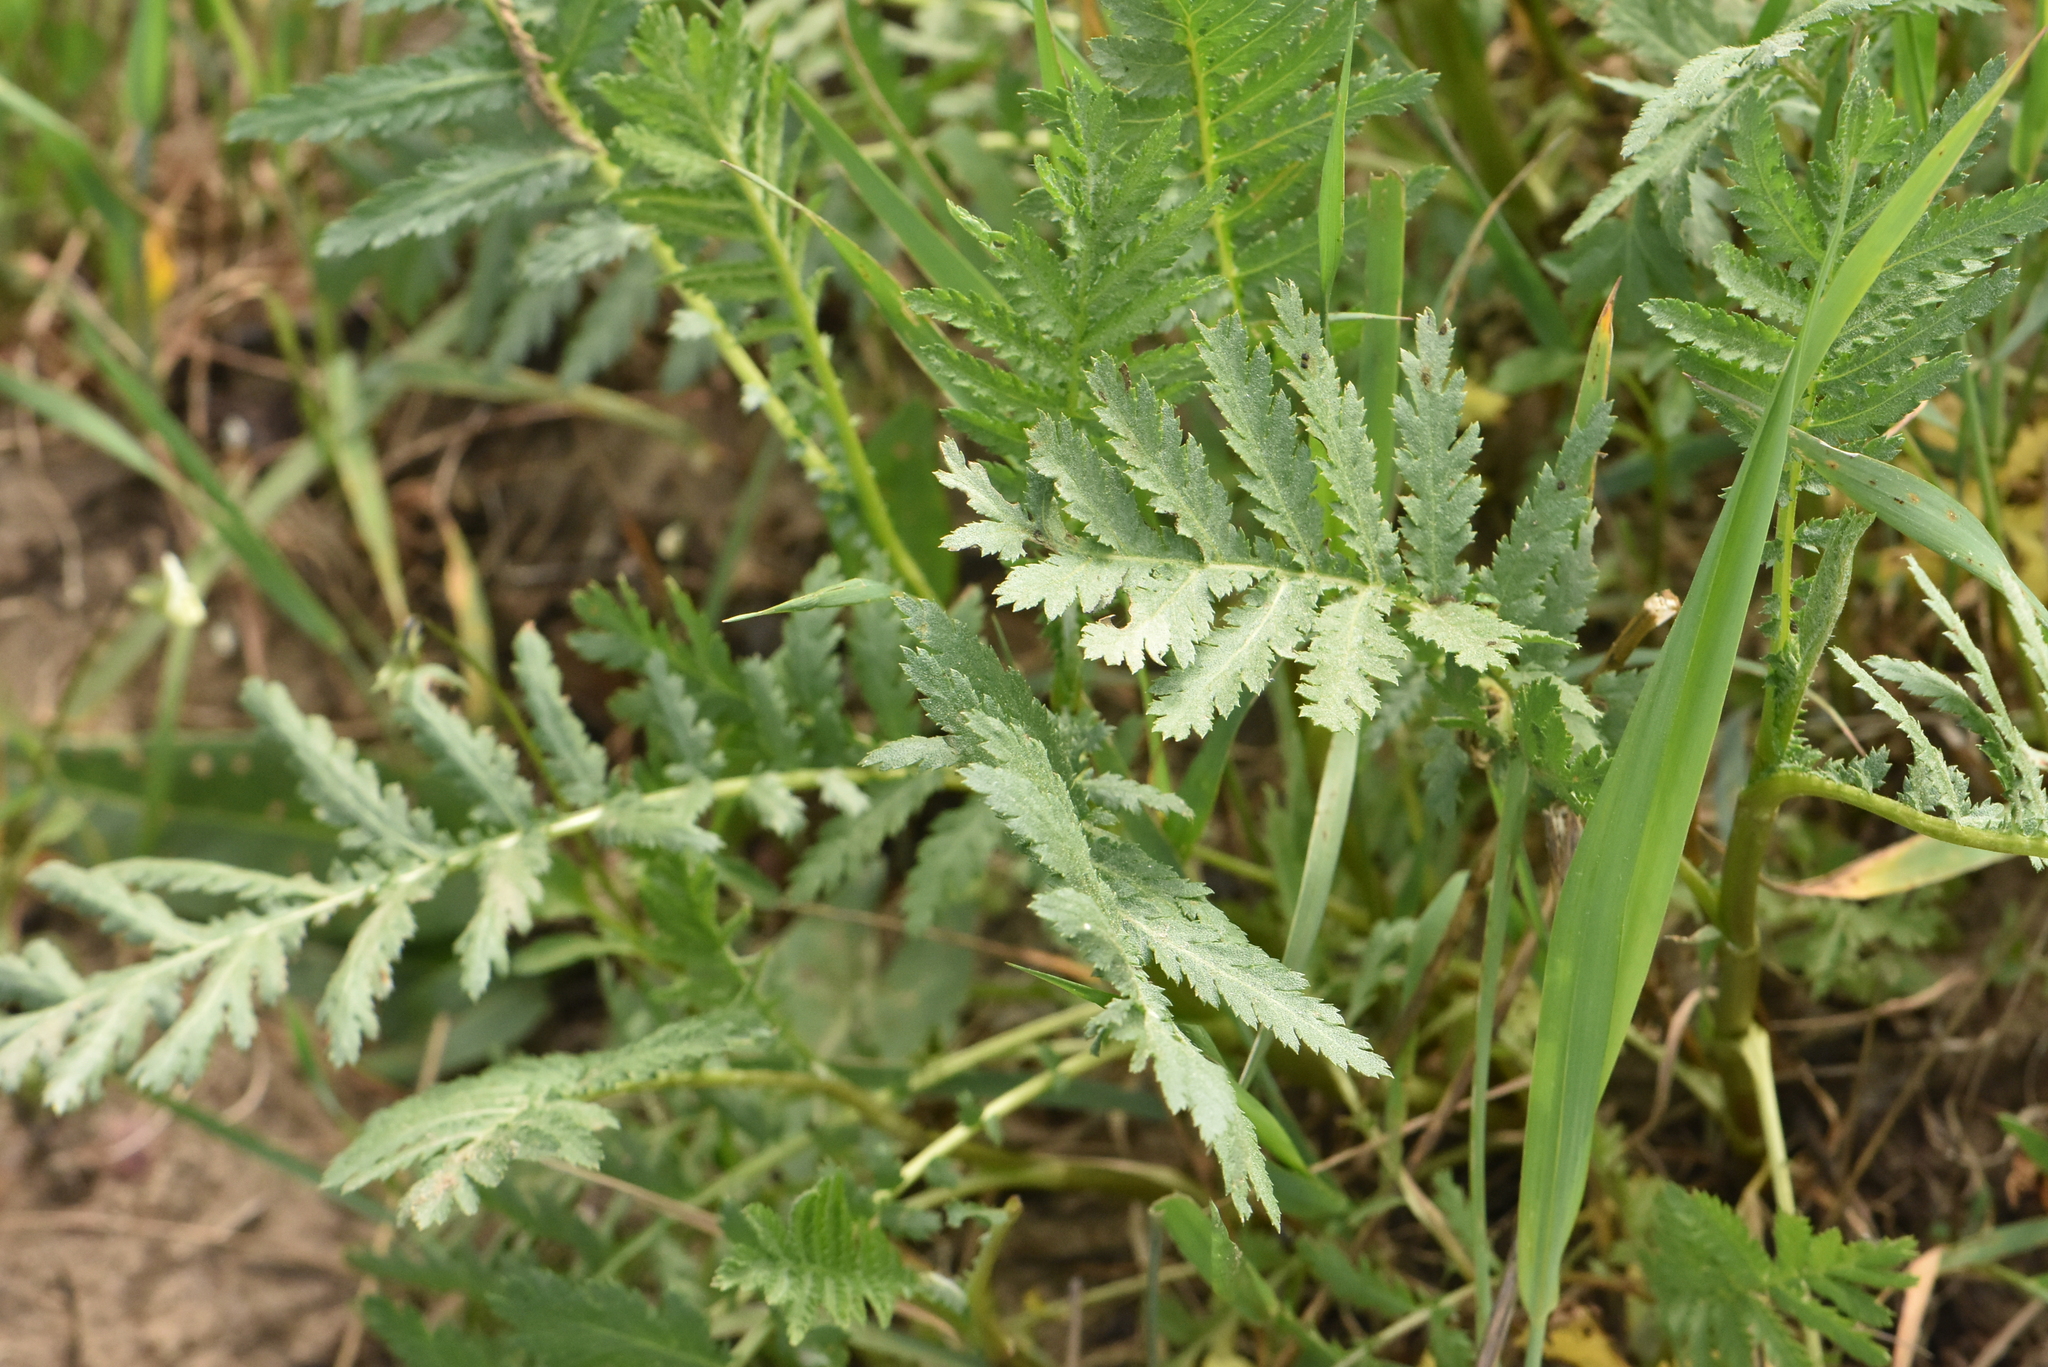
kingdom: Plantae
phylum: Tracheophyta
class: Magnoliopsida
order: Asterales
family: Asteraceae
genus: Tanacetum
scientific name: Tanacetum vulgare
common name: Common tansy
